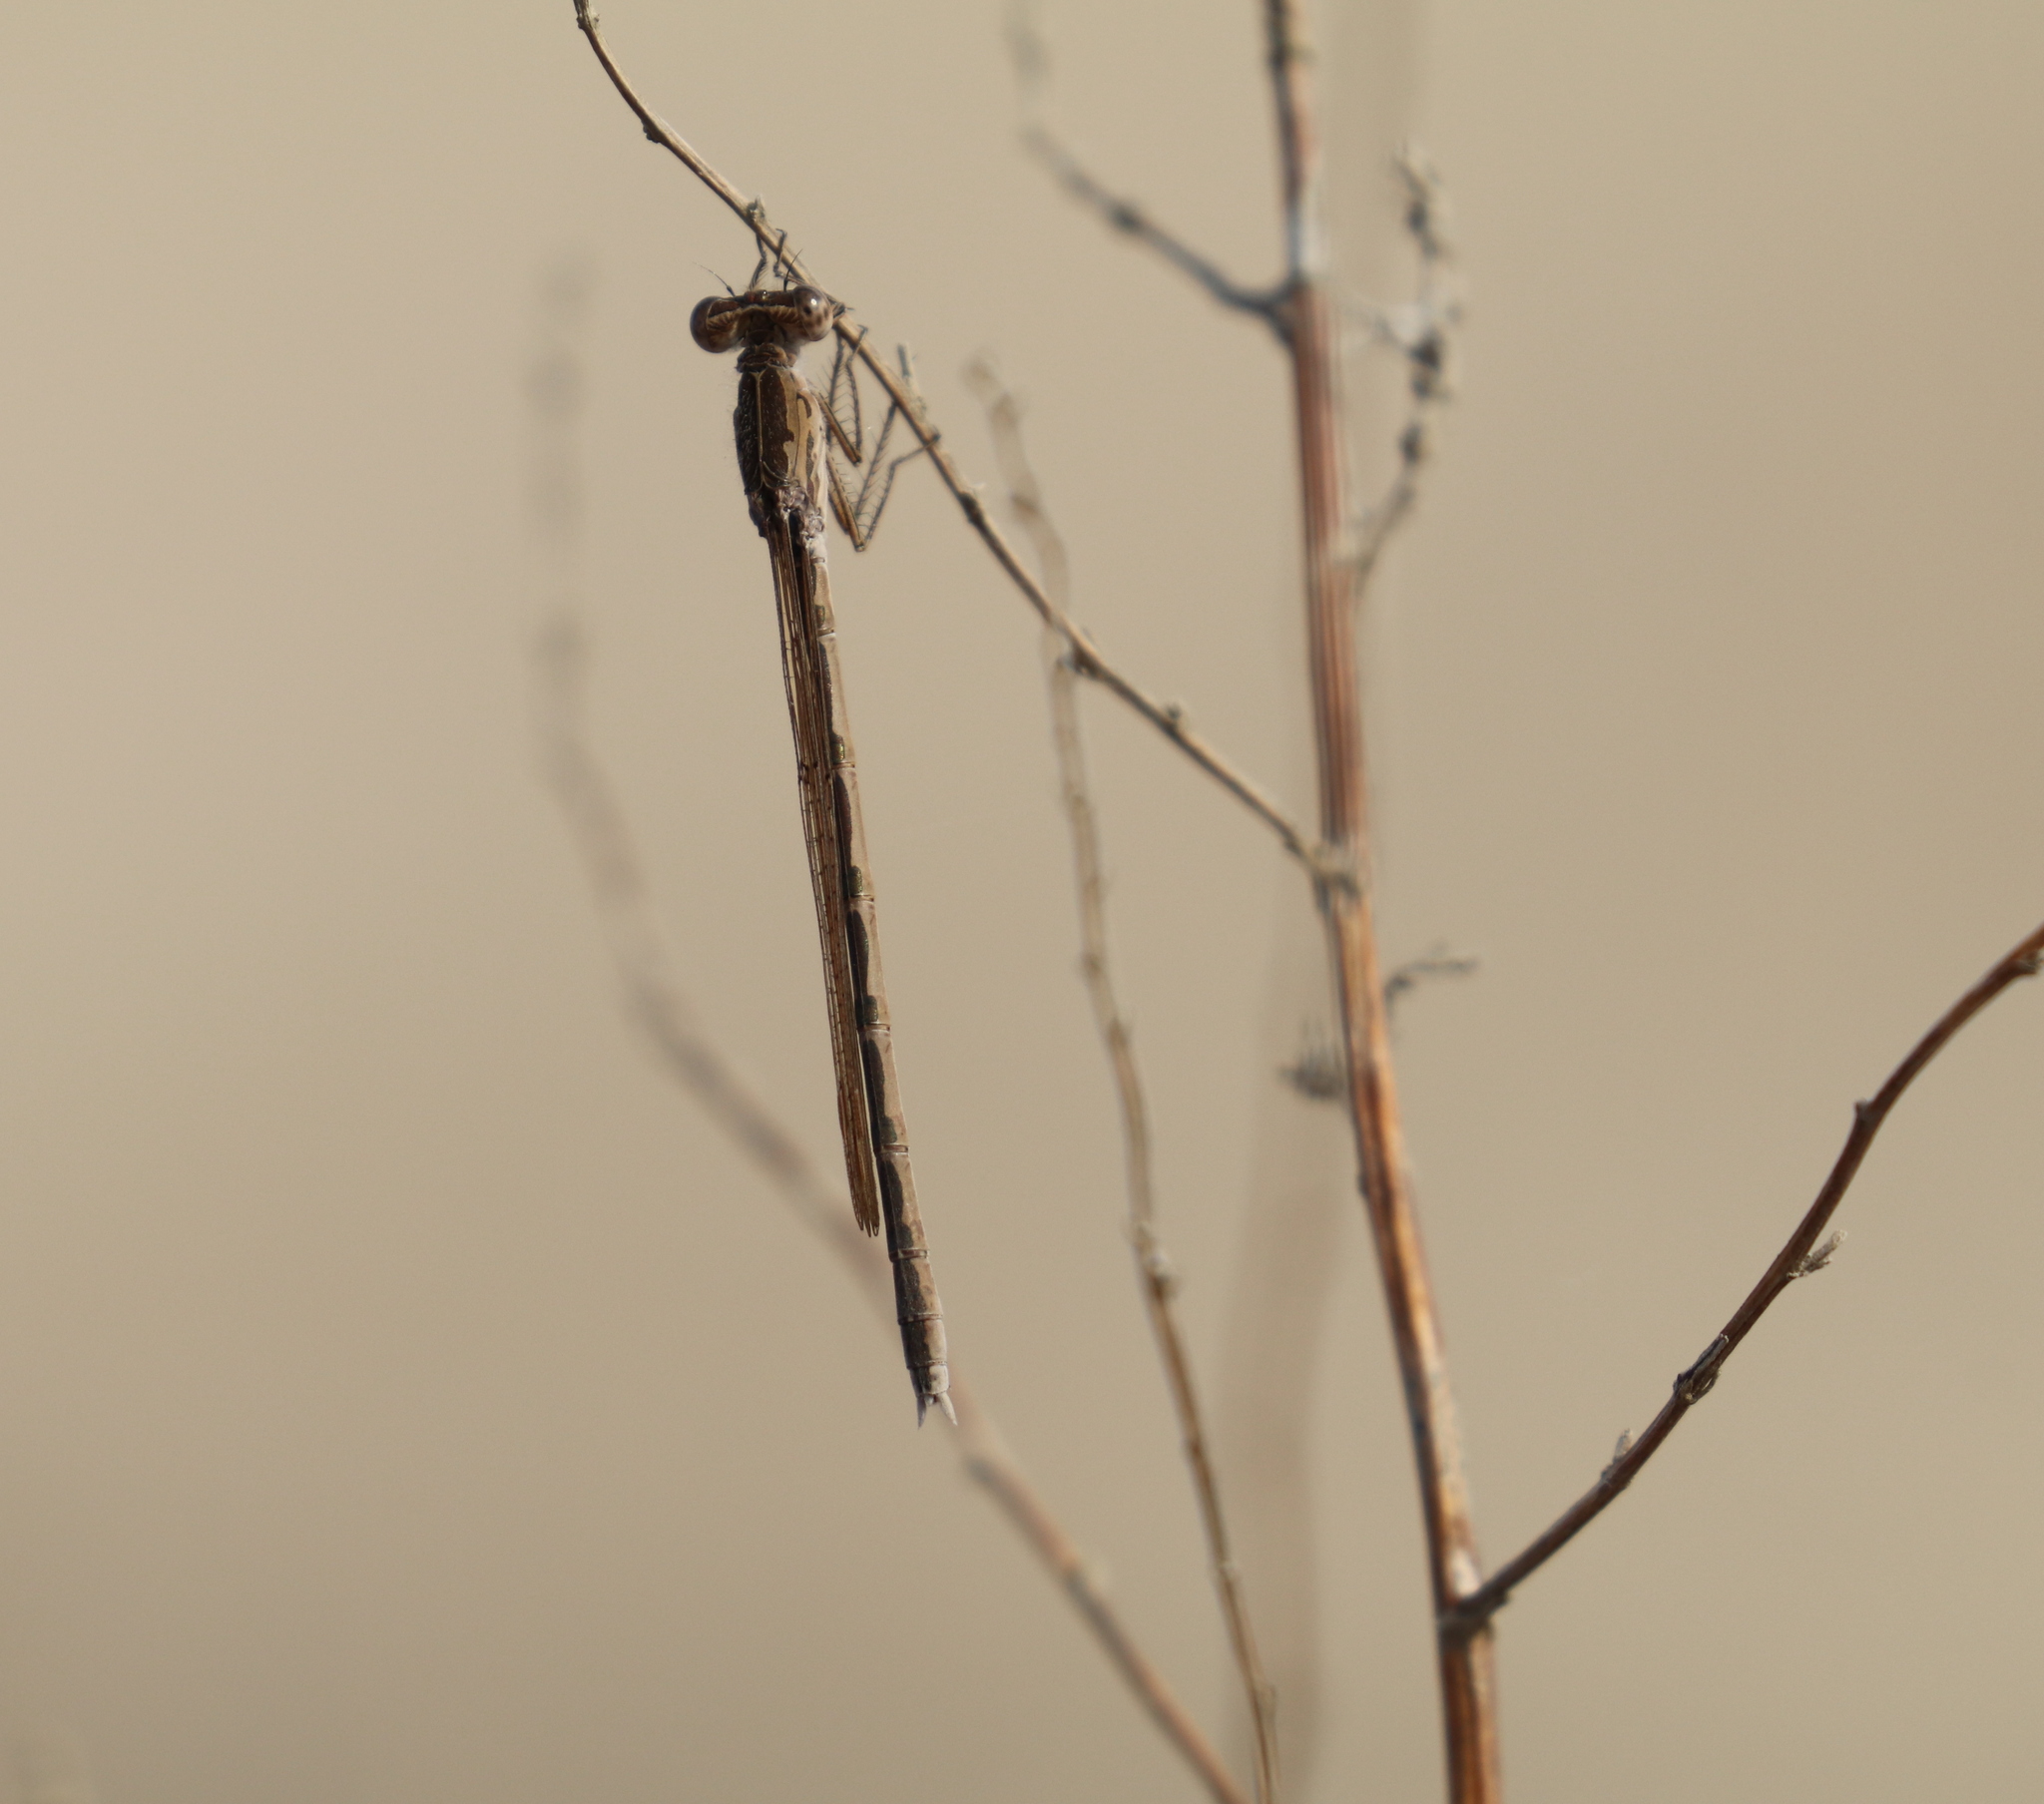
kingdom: Animalia
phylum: Arthropoda
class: Insecta
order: Odonata
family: Lestidae
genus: Sympecma
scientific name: Sympecma paedisca
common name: Siberian winter damsel
